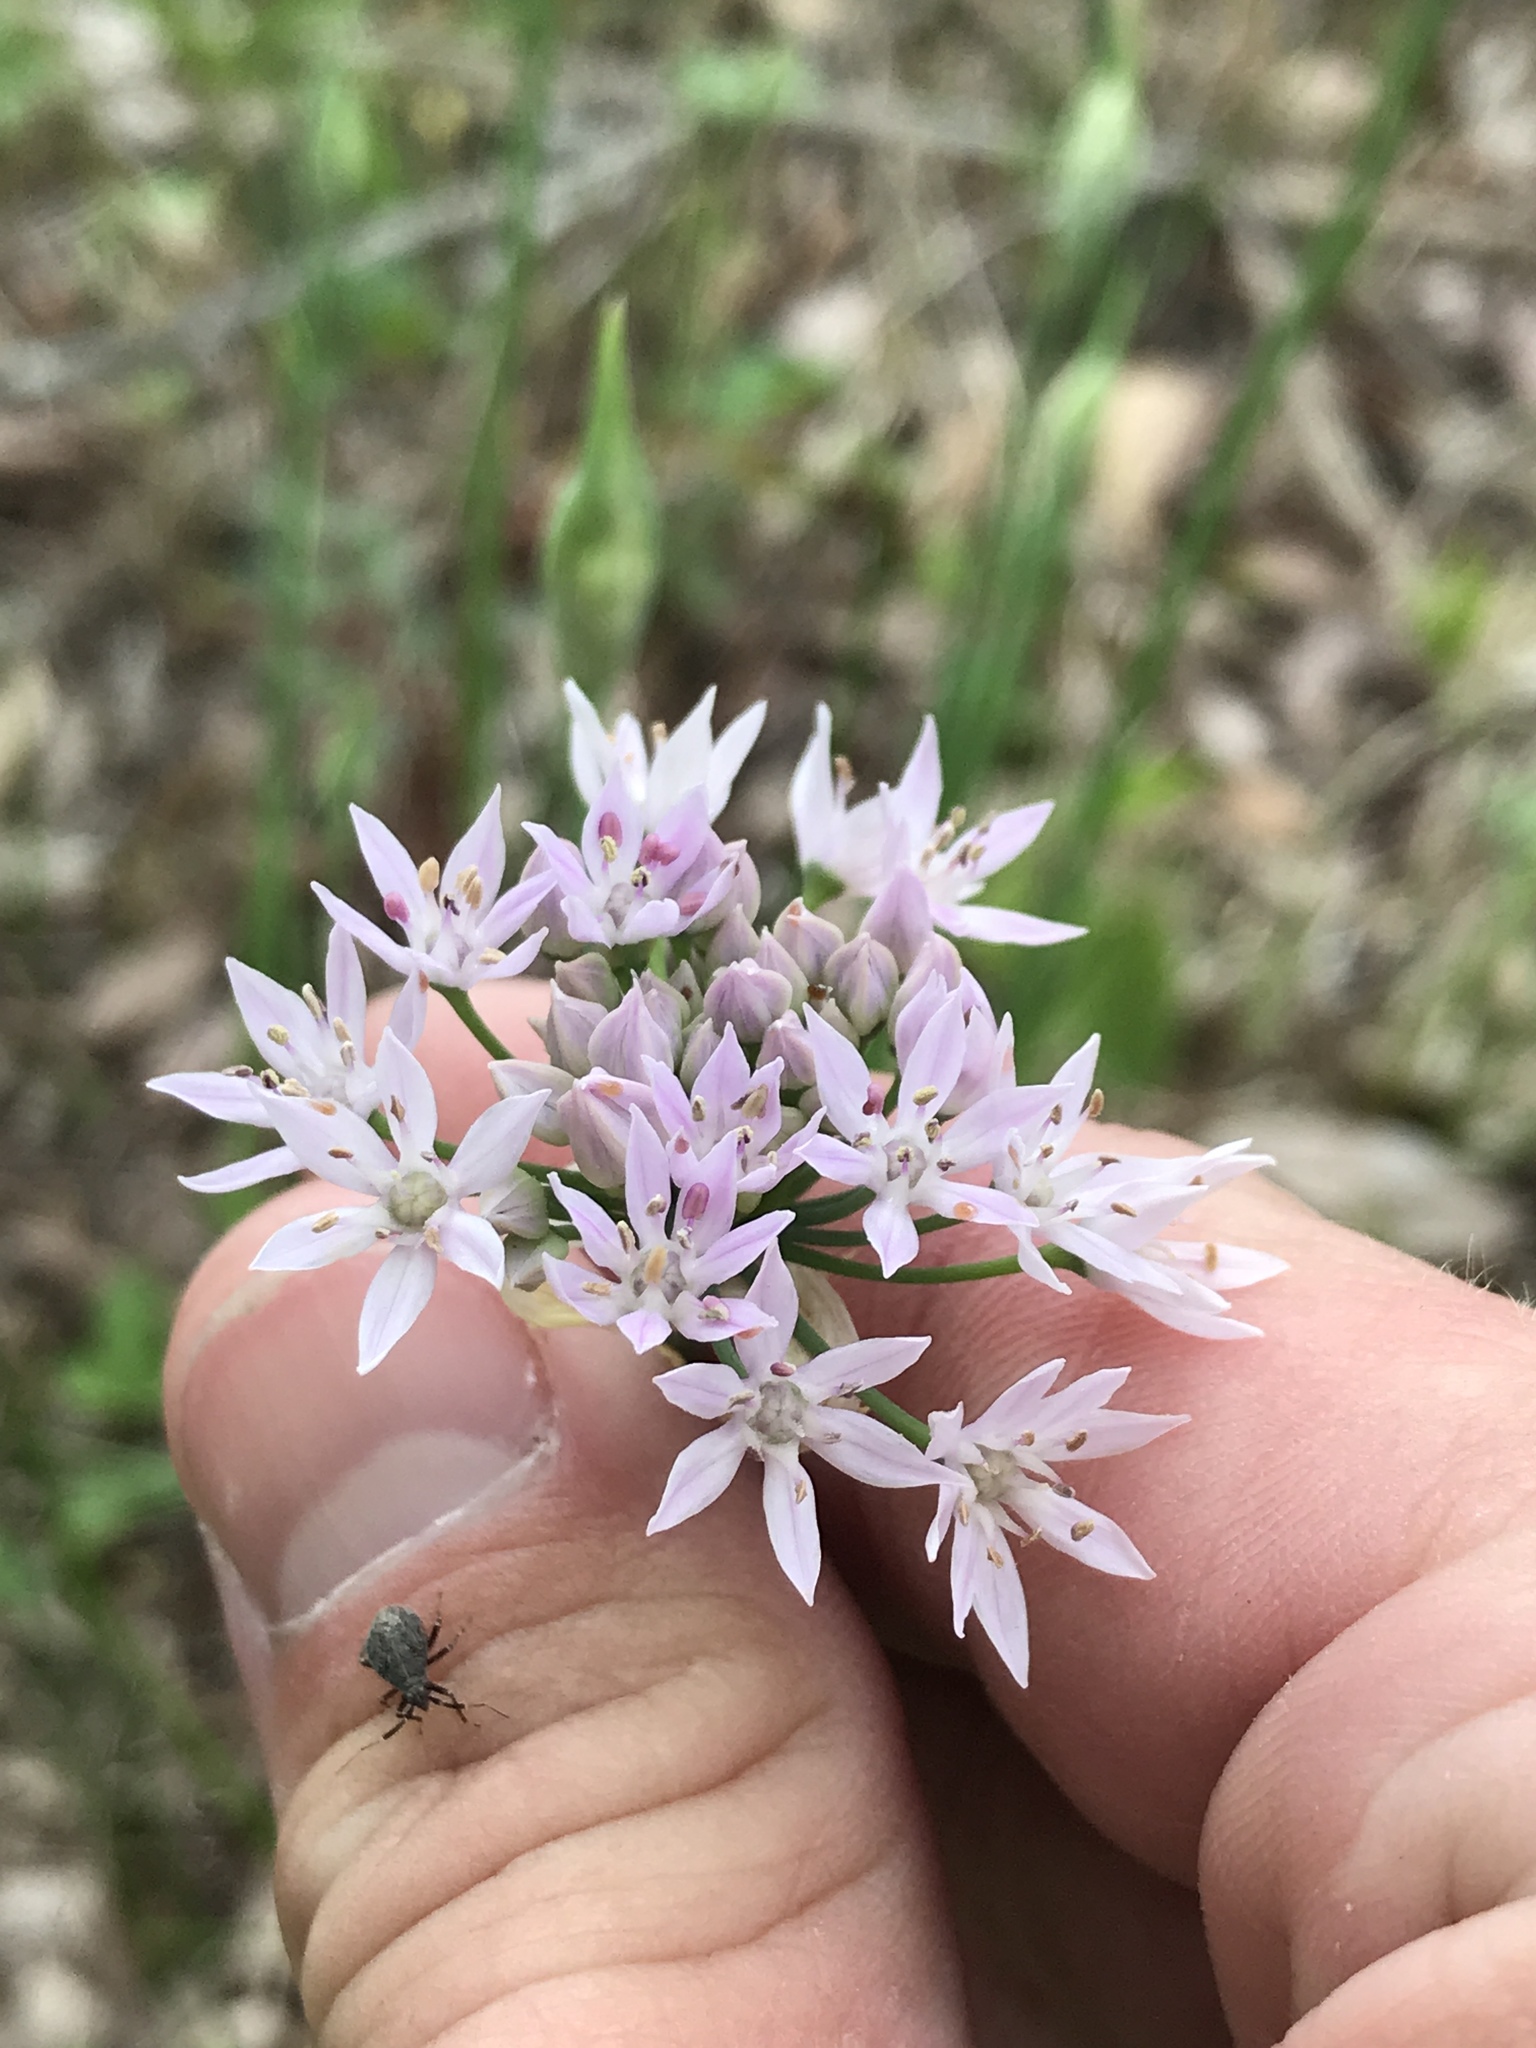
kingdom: Plantae
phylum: Tracheophyta
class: Liliopsida
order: Asparagales
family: Amaryllidaceae
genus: Allium
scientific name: Allium drummondii
